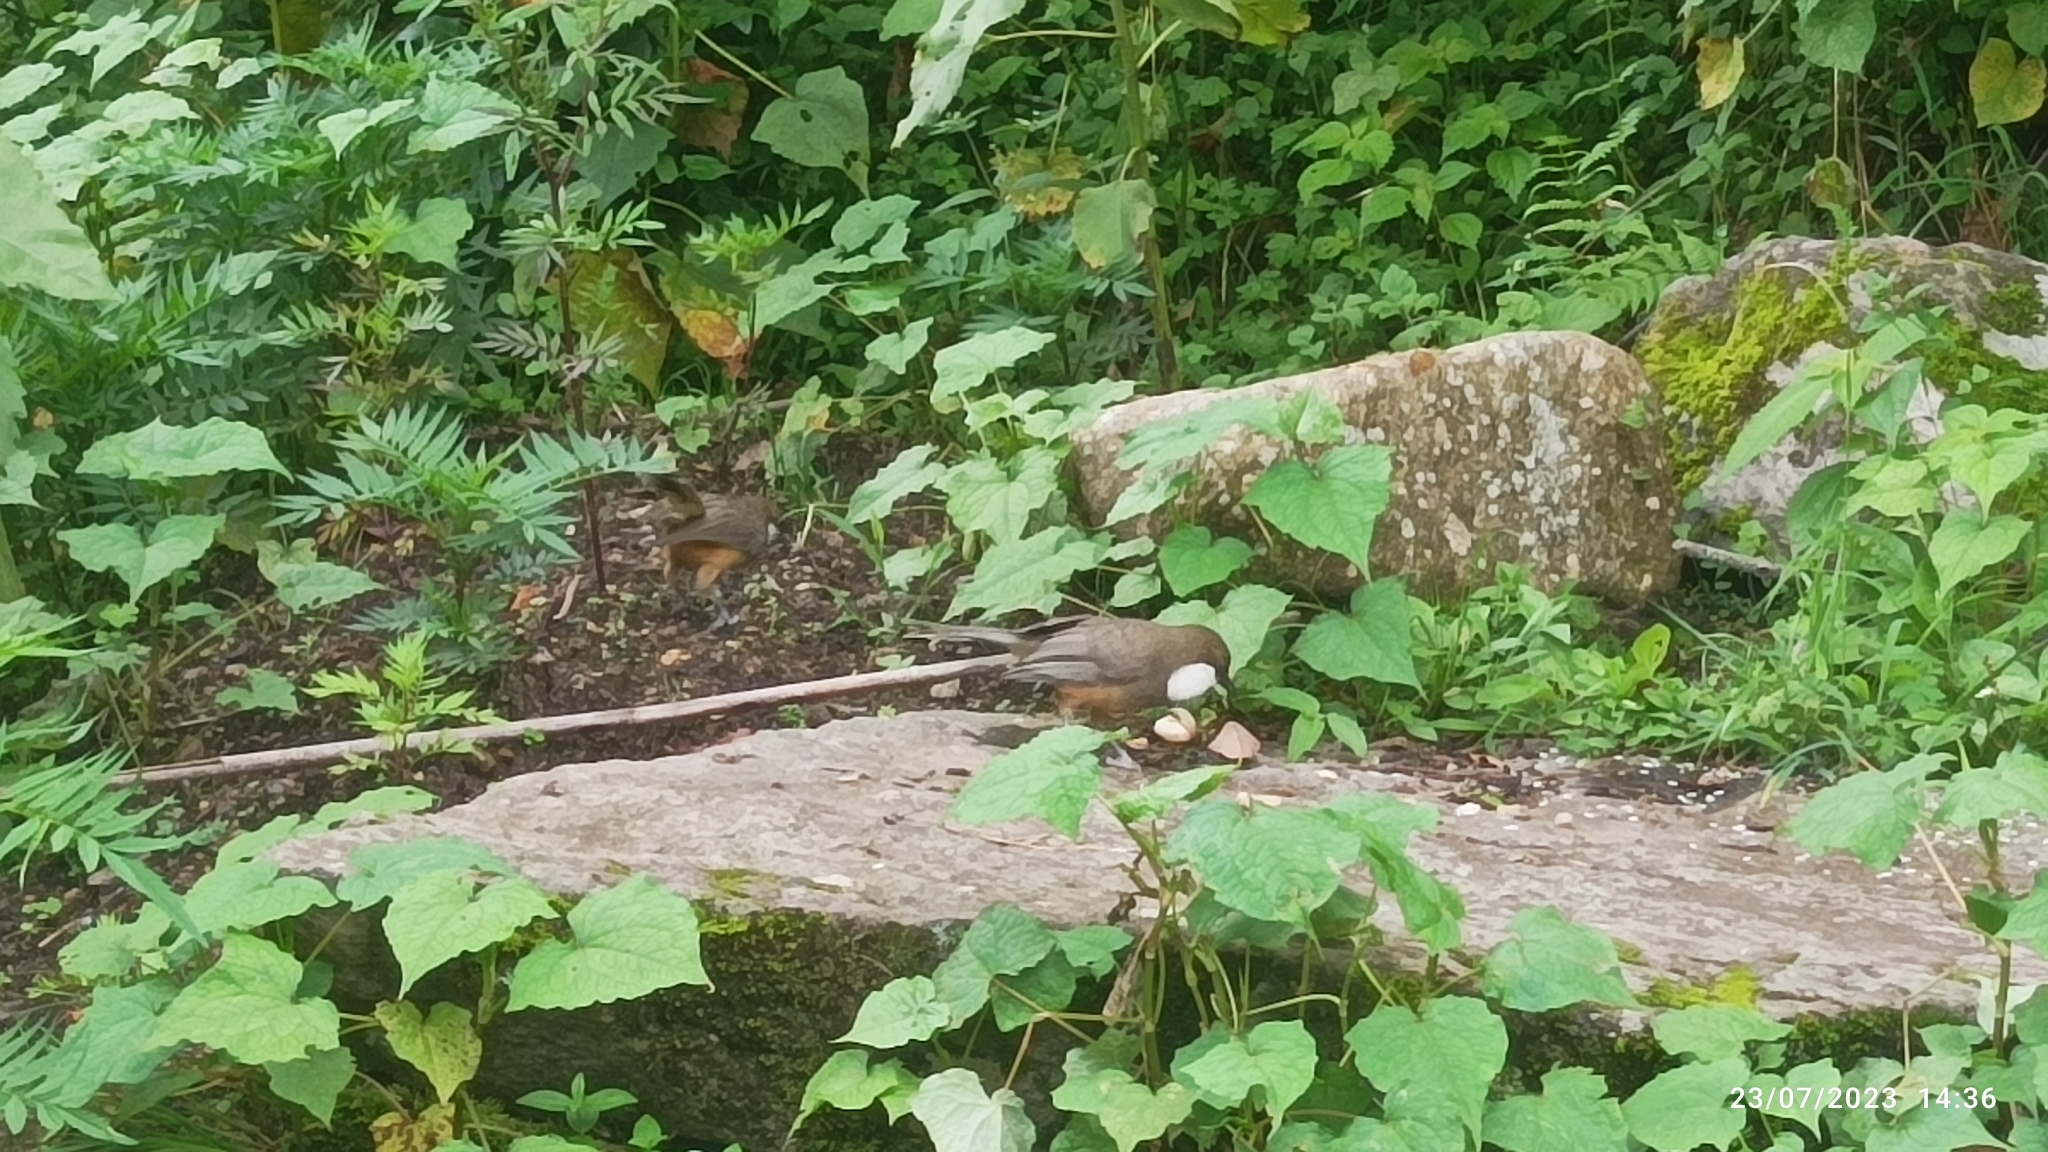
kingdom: Animalia
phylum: Chordata
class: Aves
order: Passeriformes
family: Leiothrichidae
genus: Garrulax
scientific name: Garrulax albogularis
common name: White-throated laughingthrush
